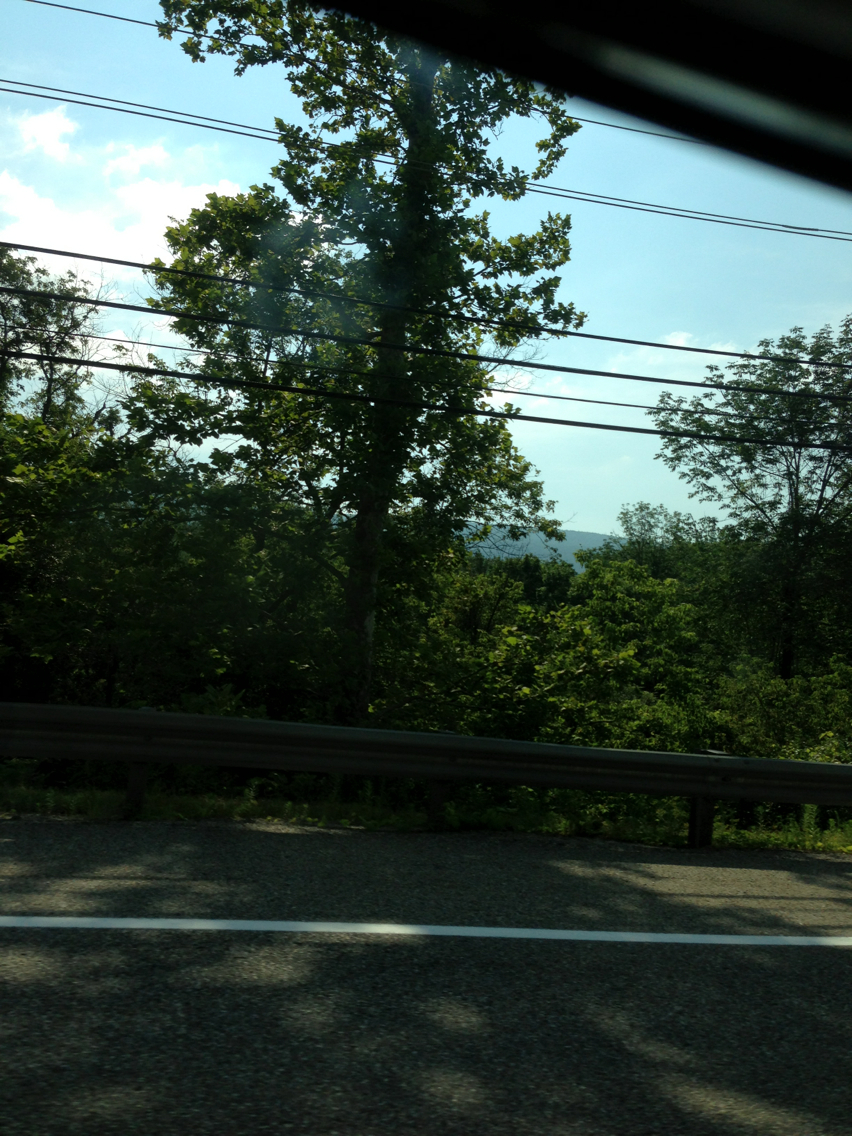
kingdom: Plantae
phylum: Tracheophyta
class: Magnoliopsida
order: Proteales
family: Platanaceae
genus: Platanus
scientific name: Platanus occidentalis
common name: American sycamore
